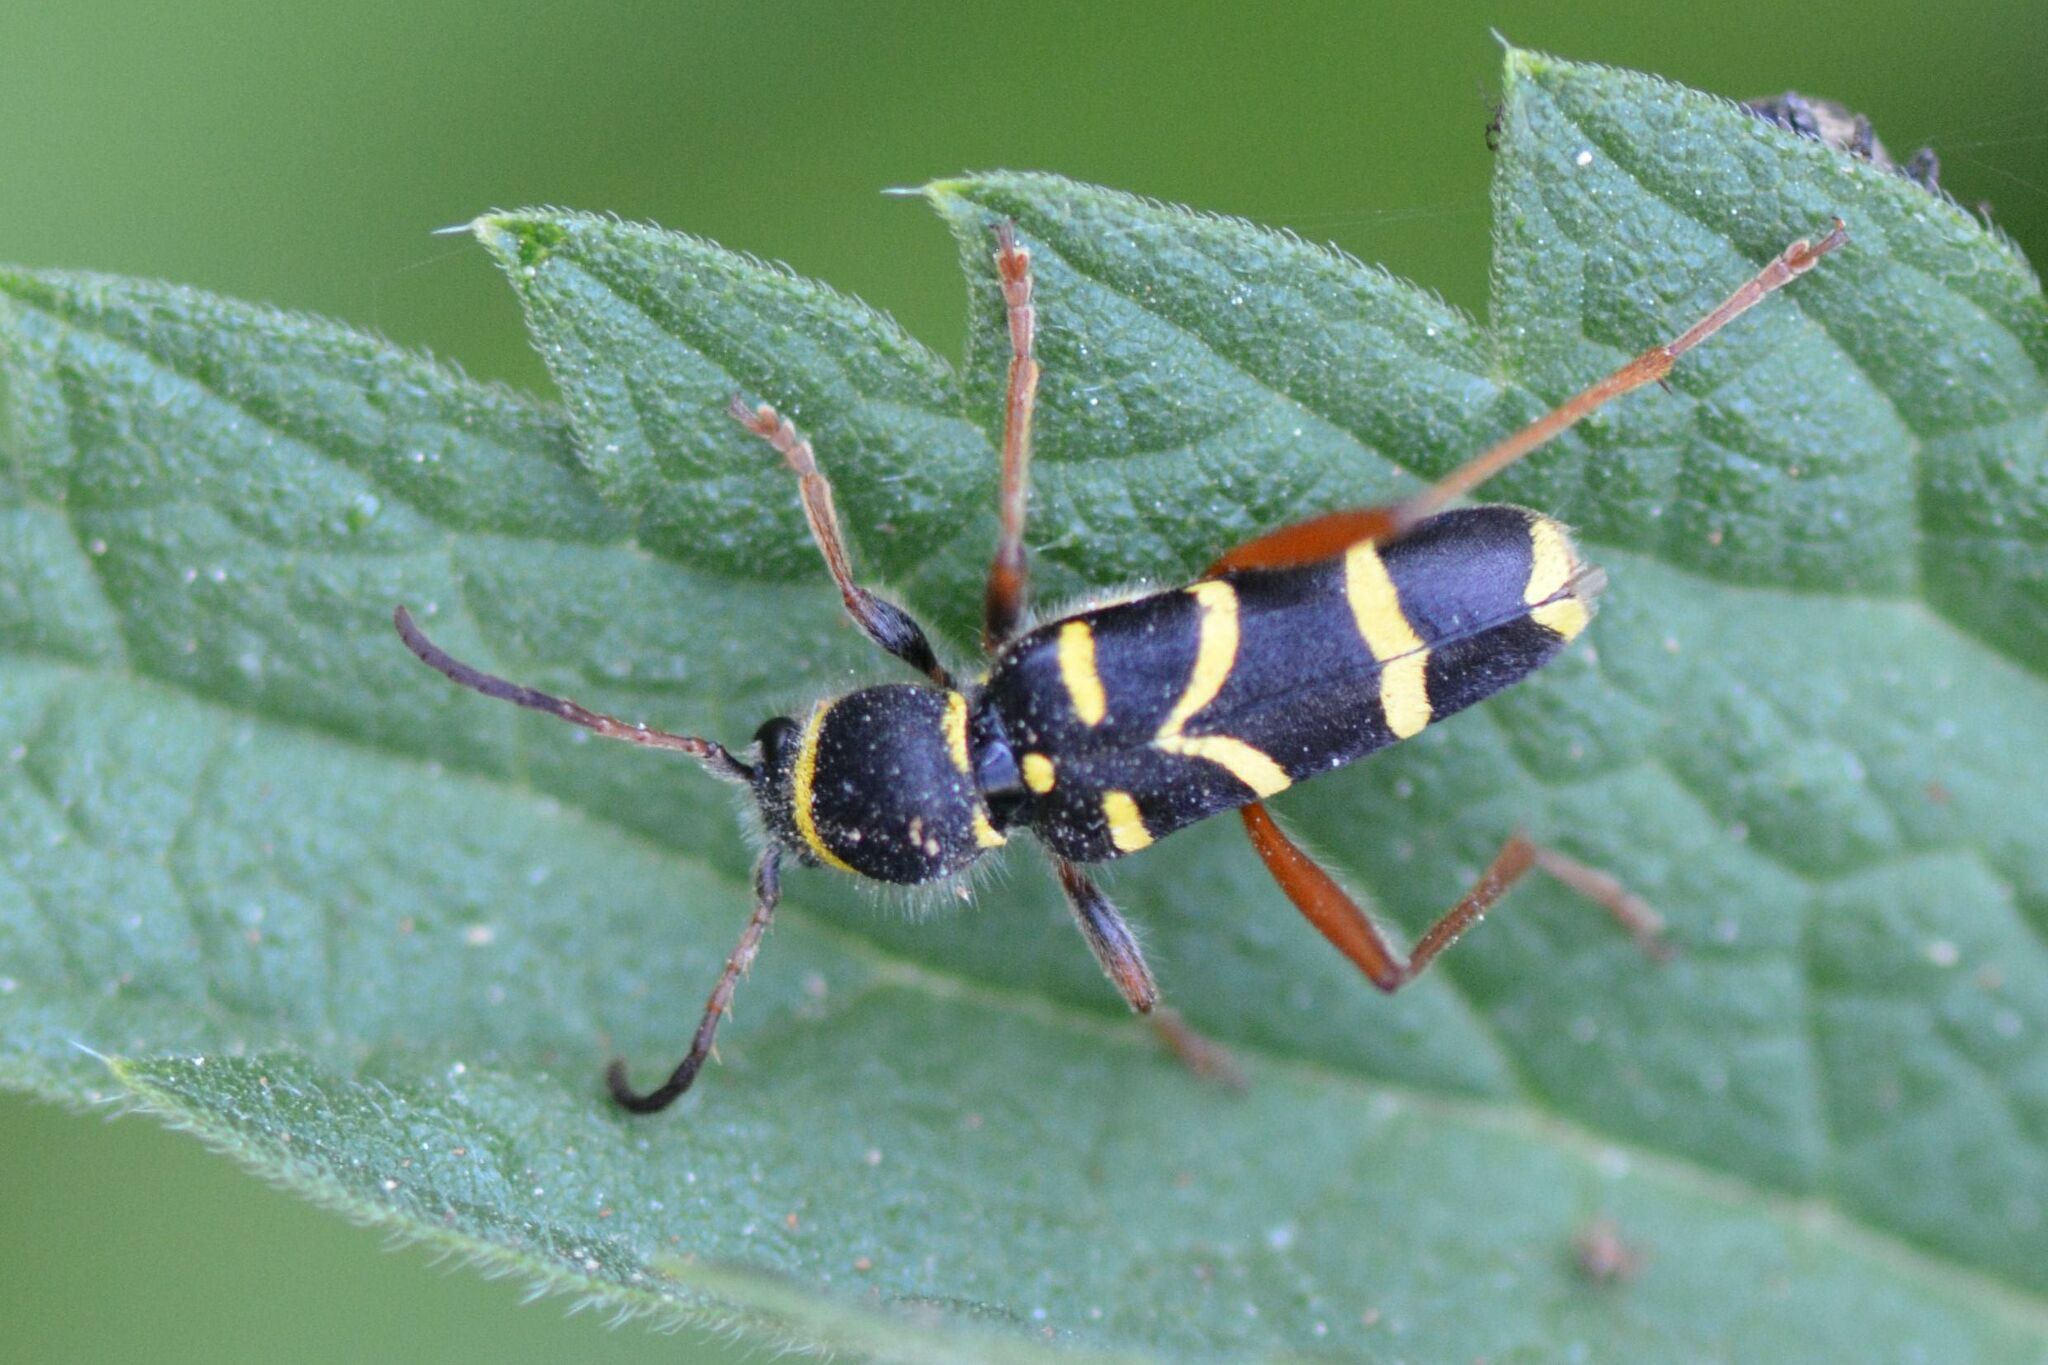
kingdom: Animalia
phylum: Arthropoda
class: Insecta
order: Coleoptera
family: Cerambycidae
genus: Clytus
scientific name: Clytus arietis
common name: Wasp beetle
